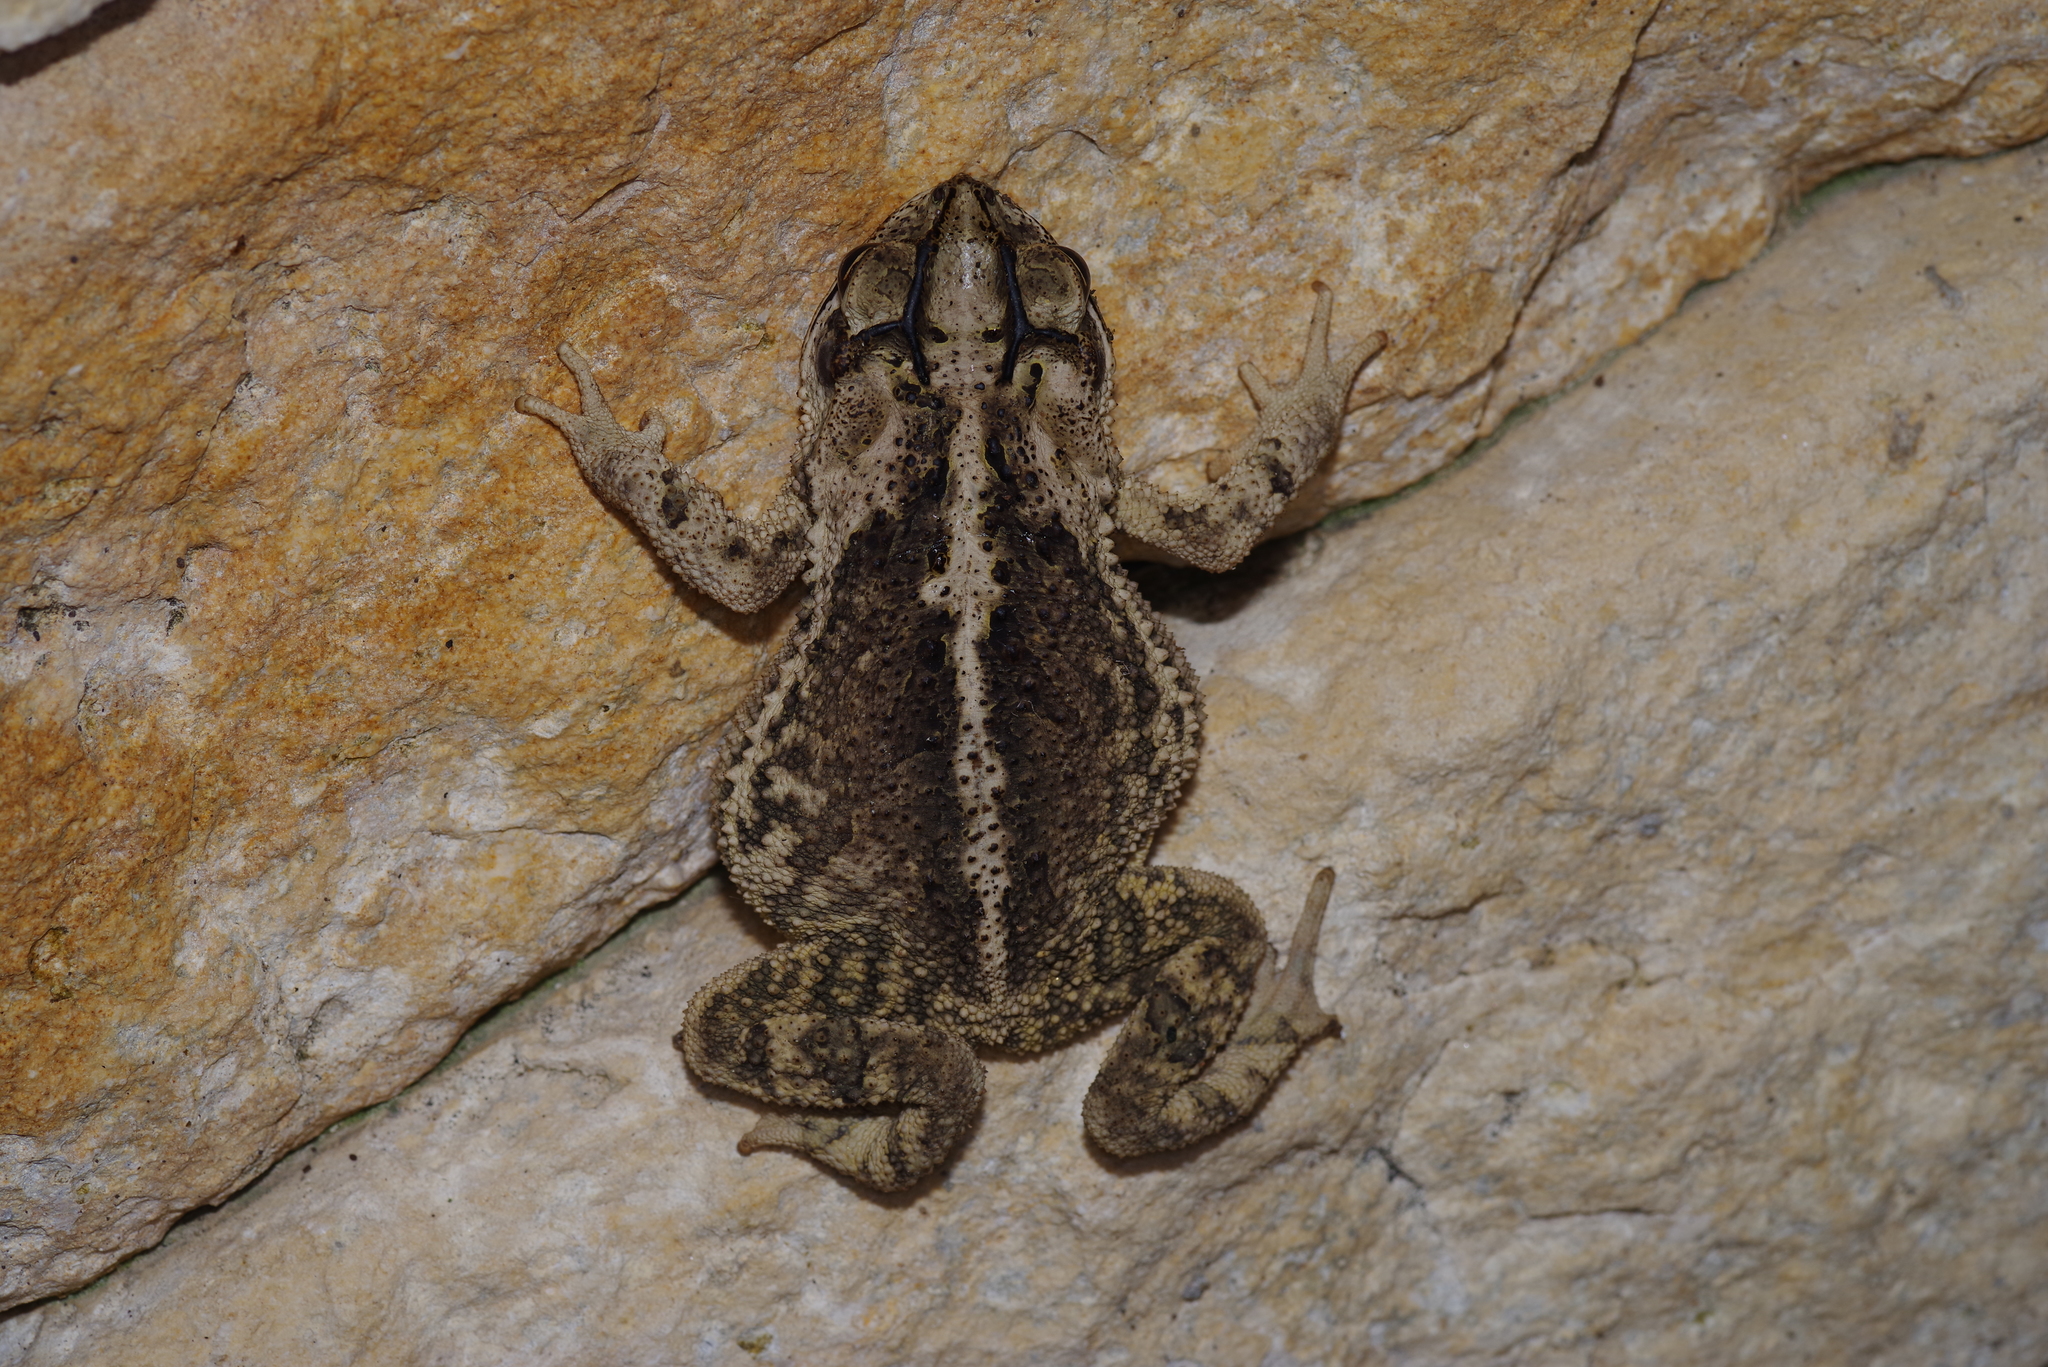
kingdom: Animalia
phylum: Chordata
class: Amphibia
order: Anura
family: Bufonidae
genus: Incilius
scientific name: Incilius nebulifer
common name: Gulf coast toad
